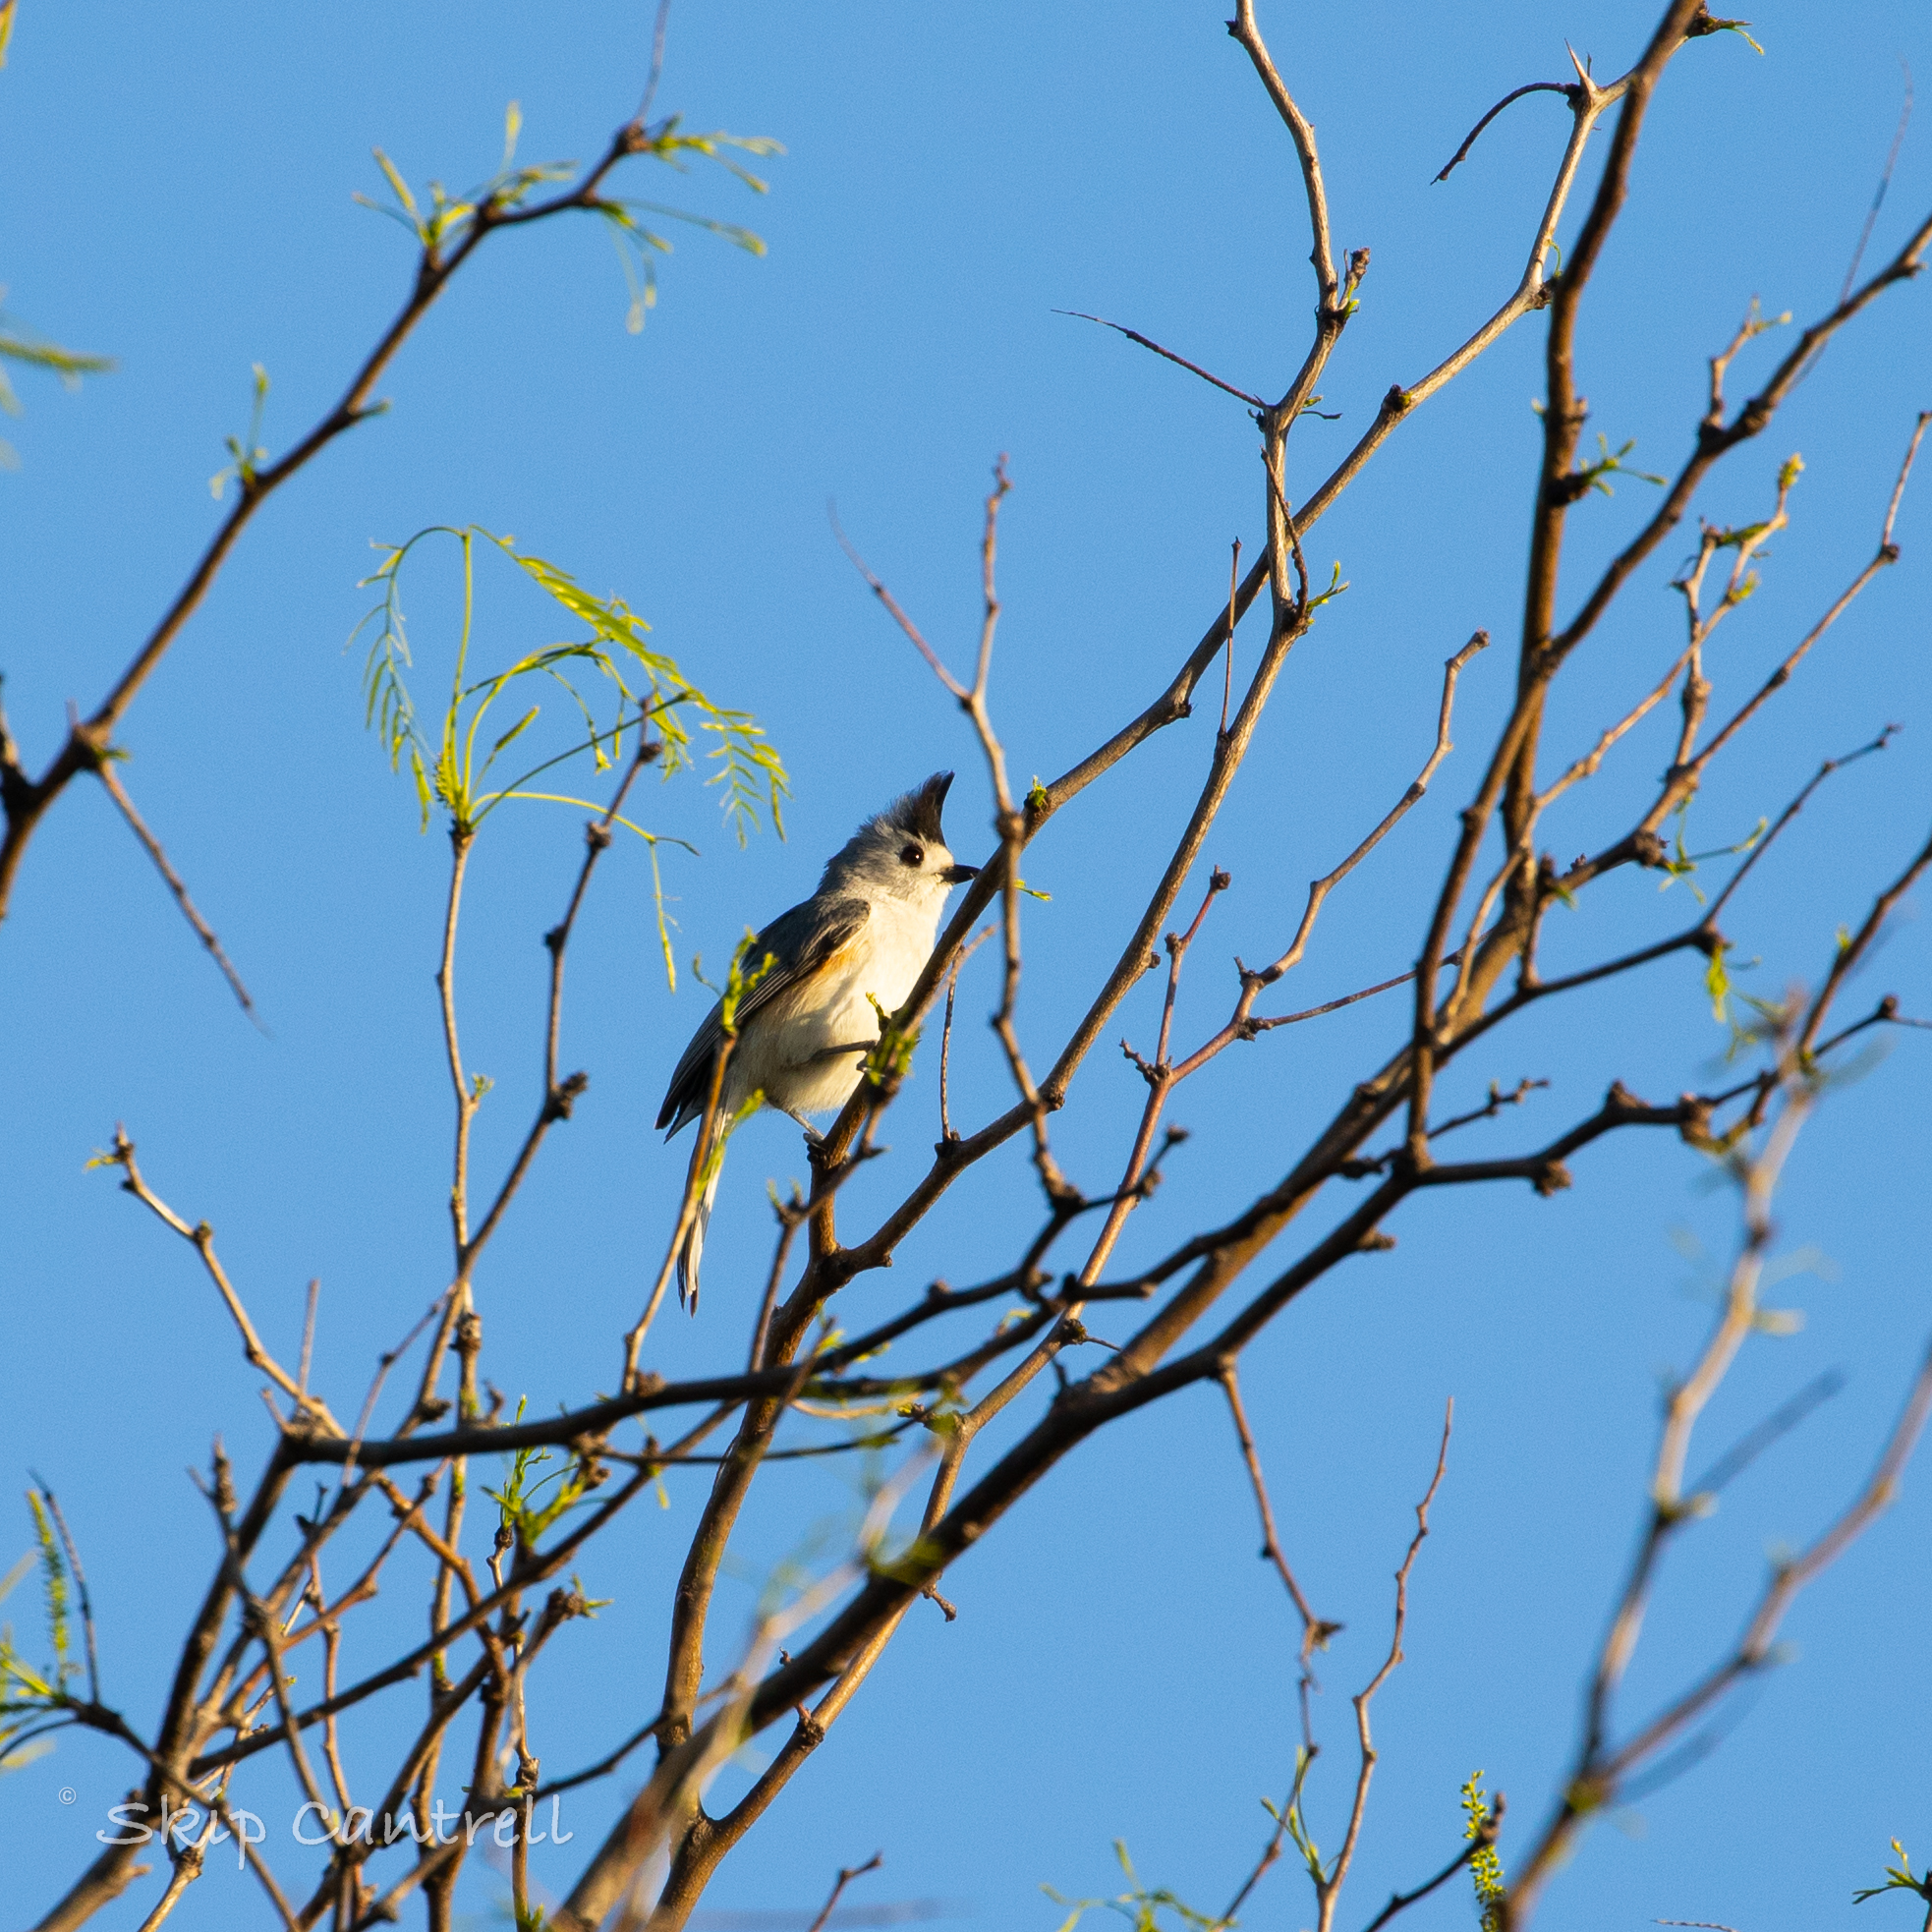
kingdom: Animalia
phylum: Chordata
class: Aves
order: Passeriformes
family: Paridae
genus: Baeolophus
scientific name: Baeolophus atricristatus
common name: Black-crested titmouse
